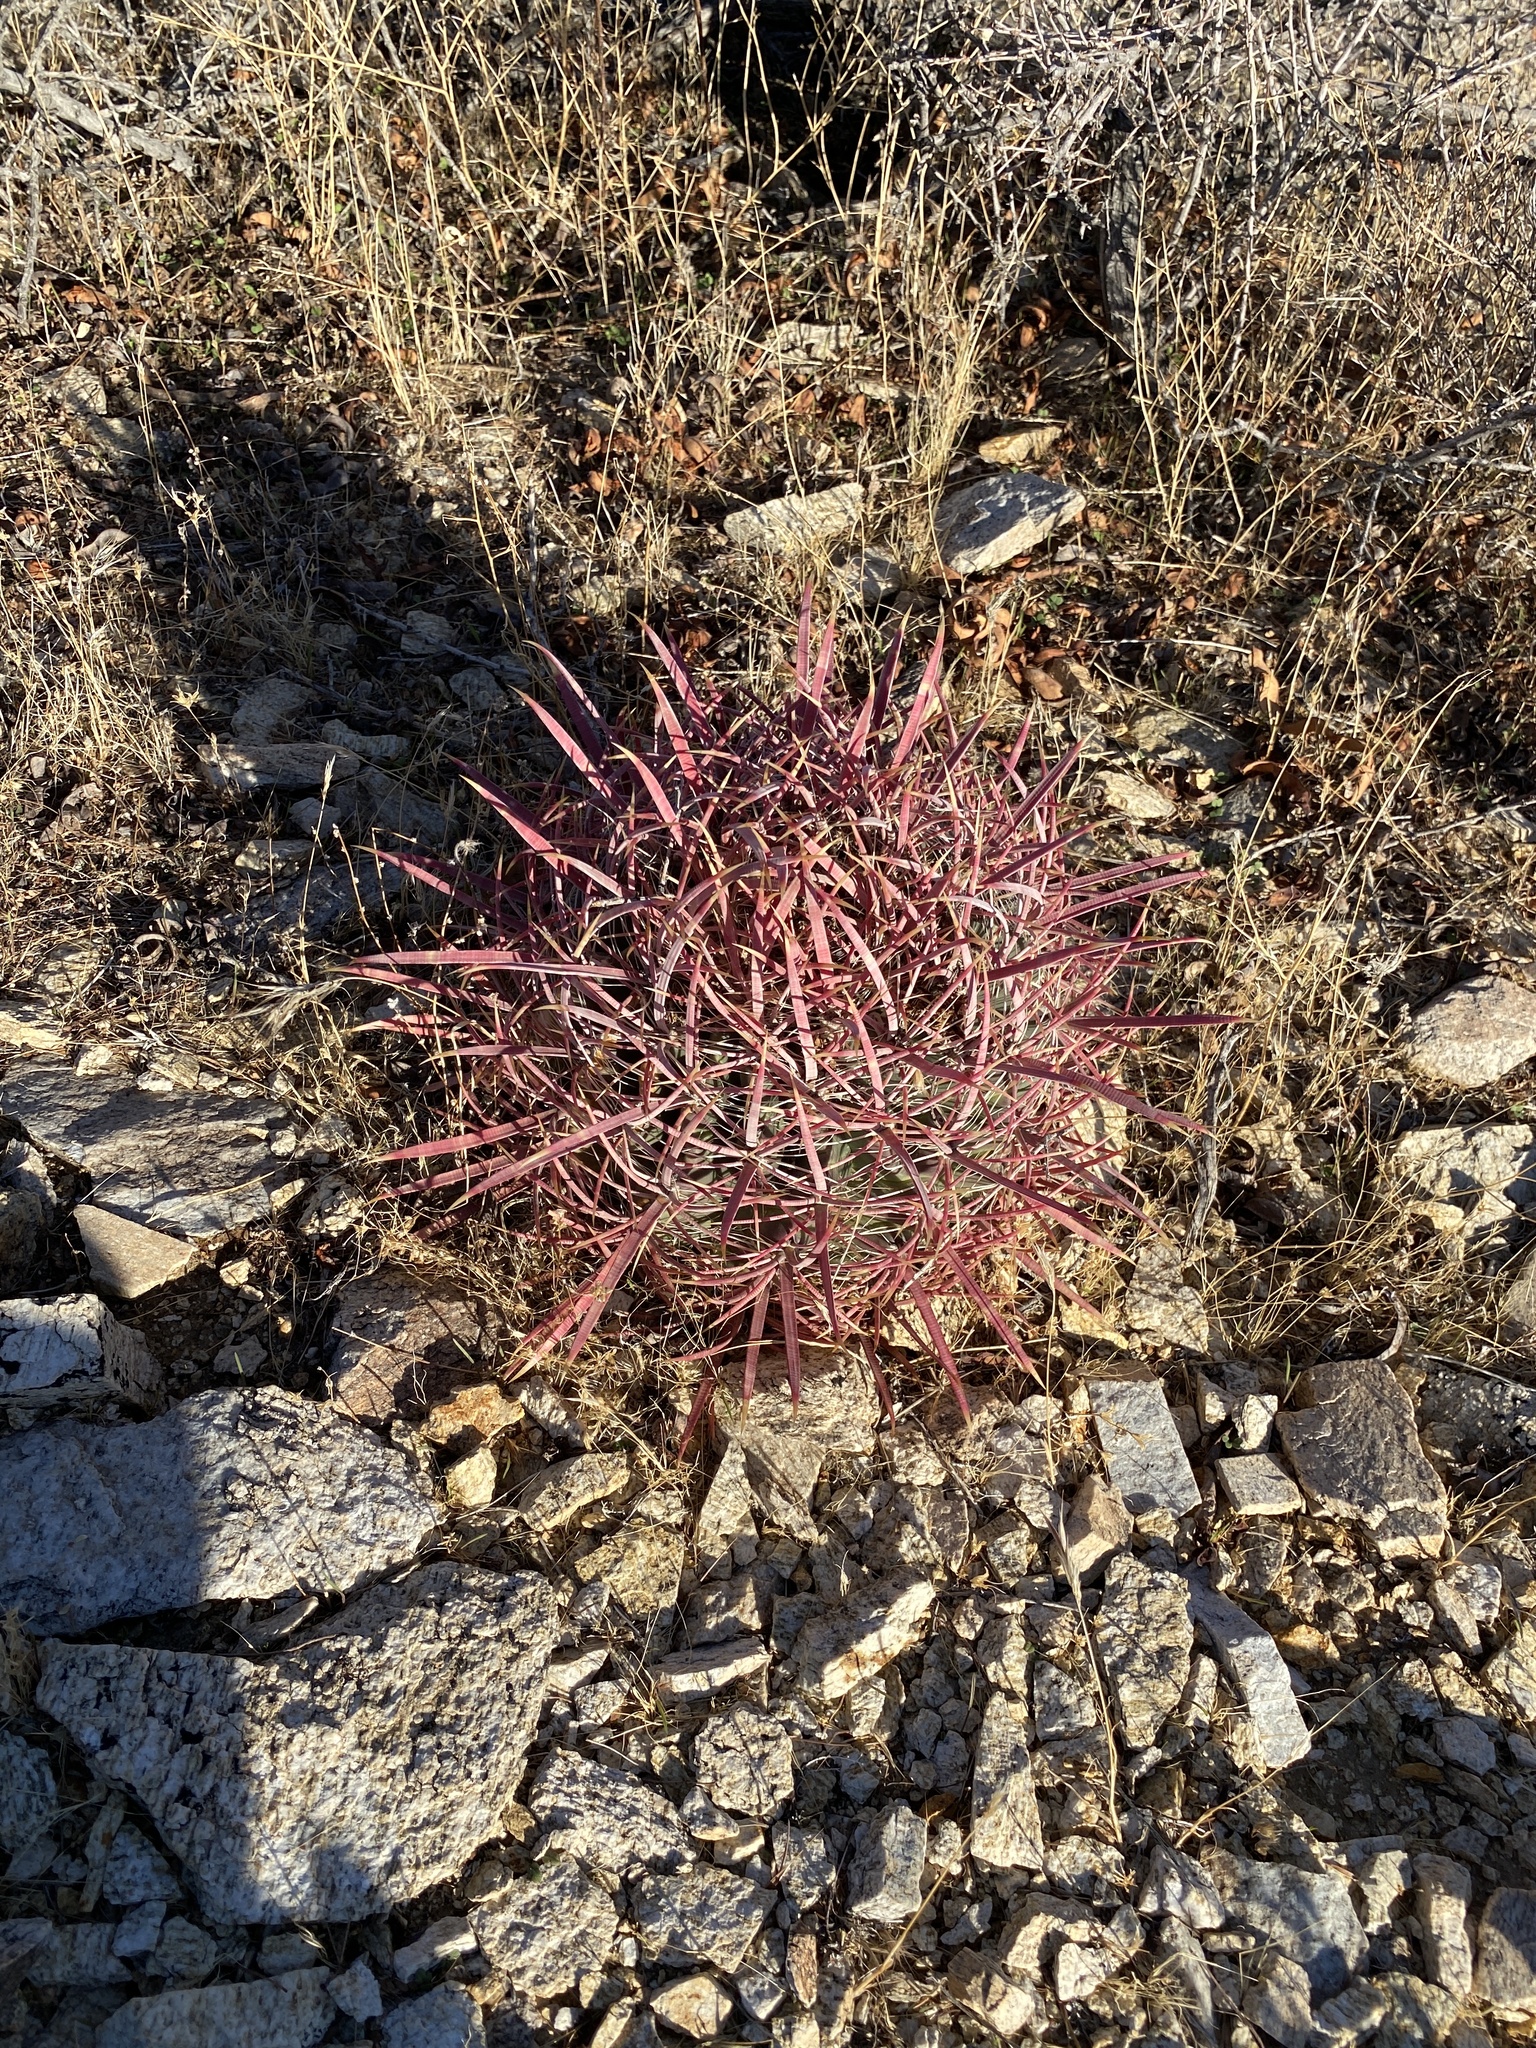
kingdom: Plantae
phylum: Tracheophyta
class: Magnoliopsida
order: Caryophyllales
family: Cactaceae
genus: Ferocactus
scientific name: Ferocactus cylindraceus
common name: California barrel cactus
